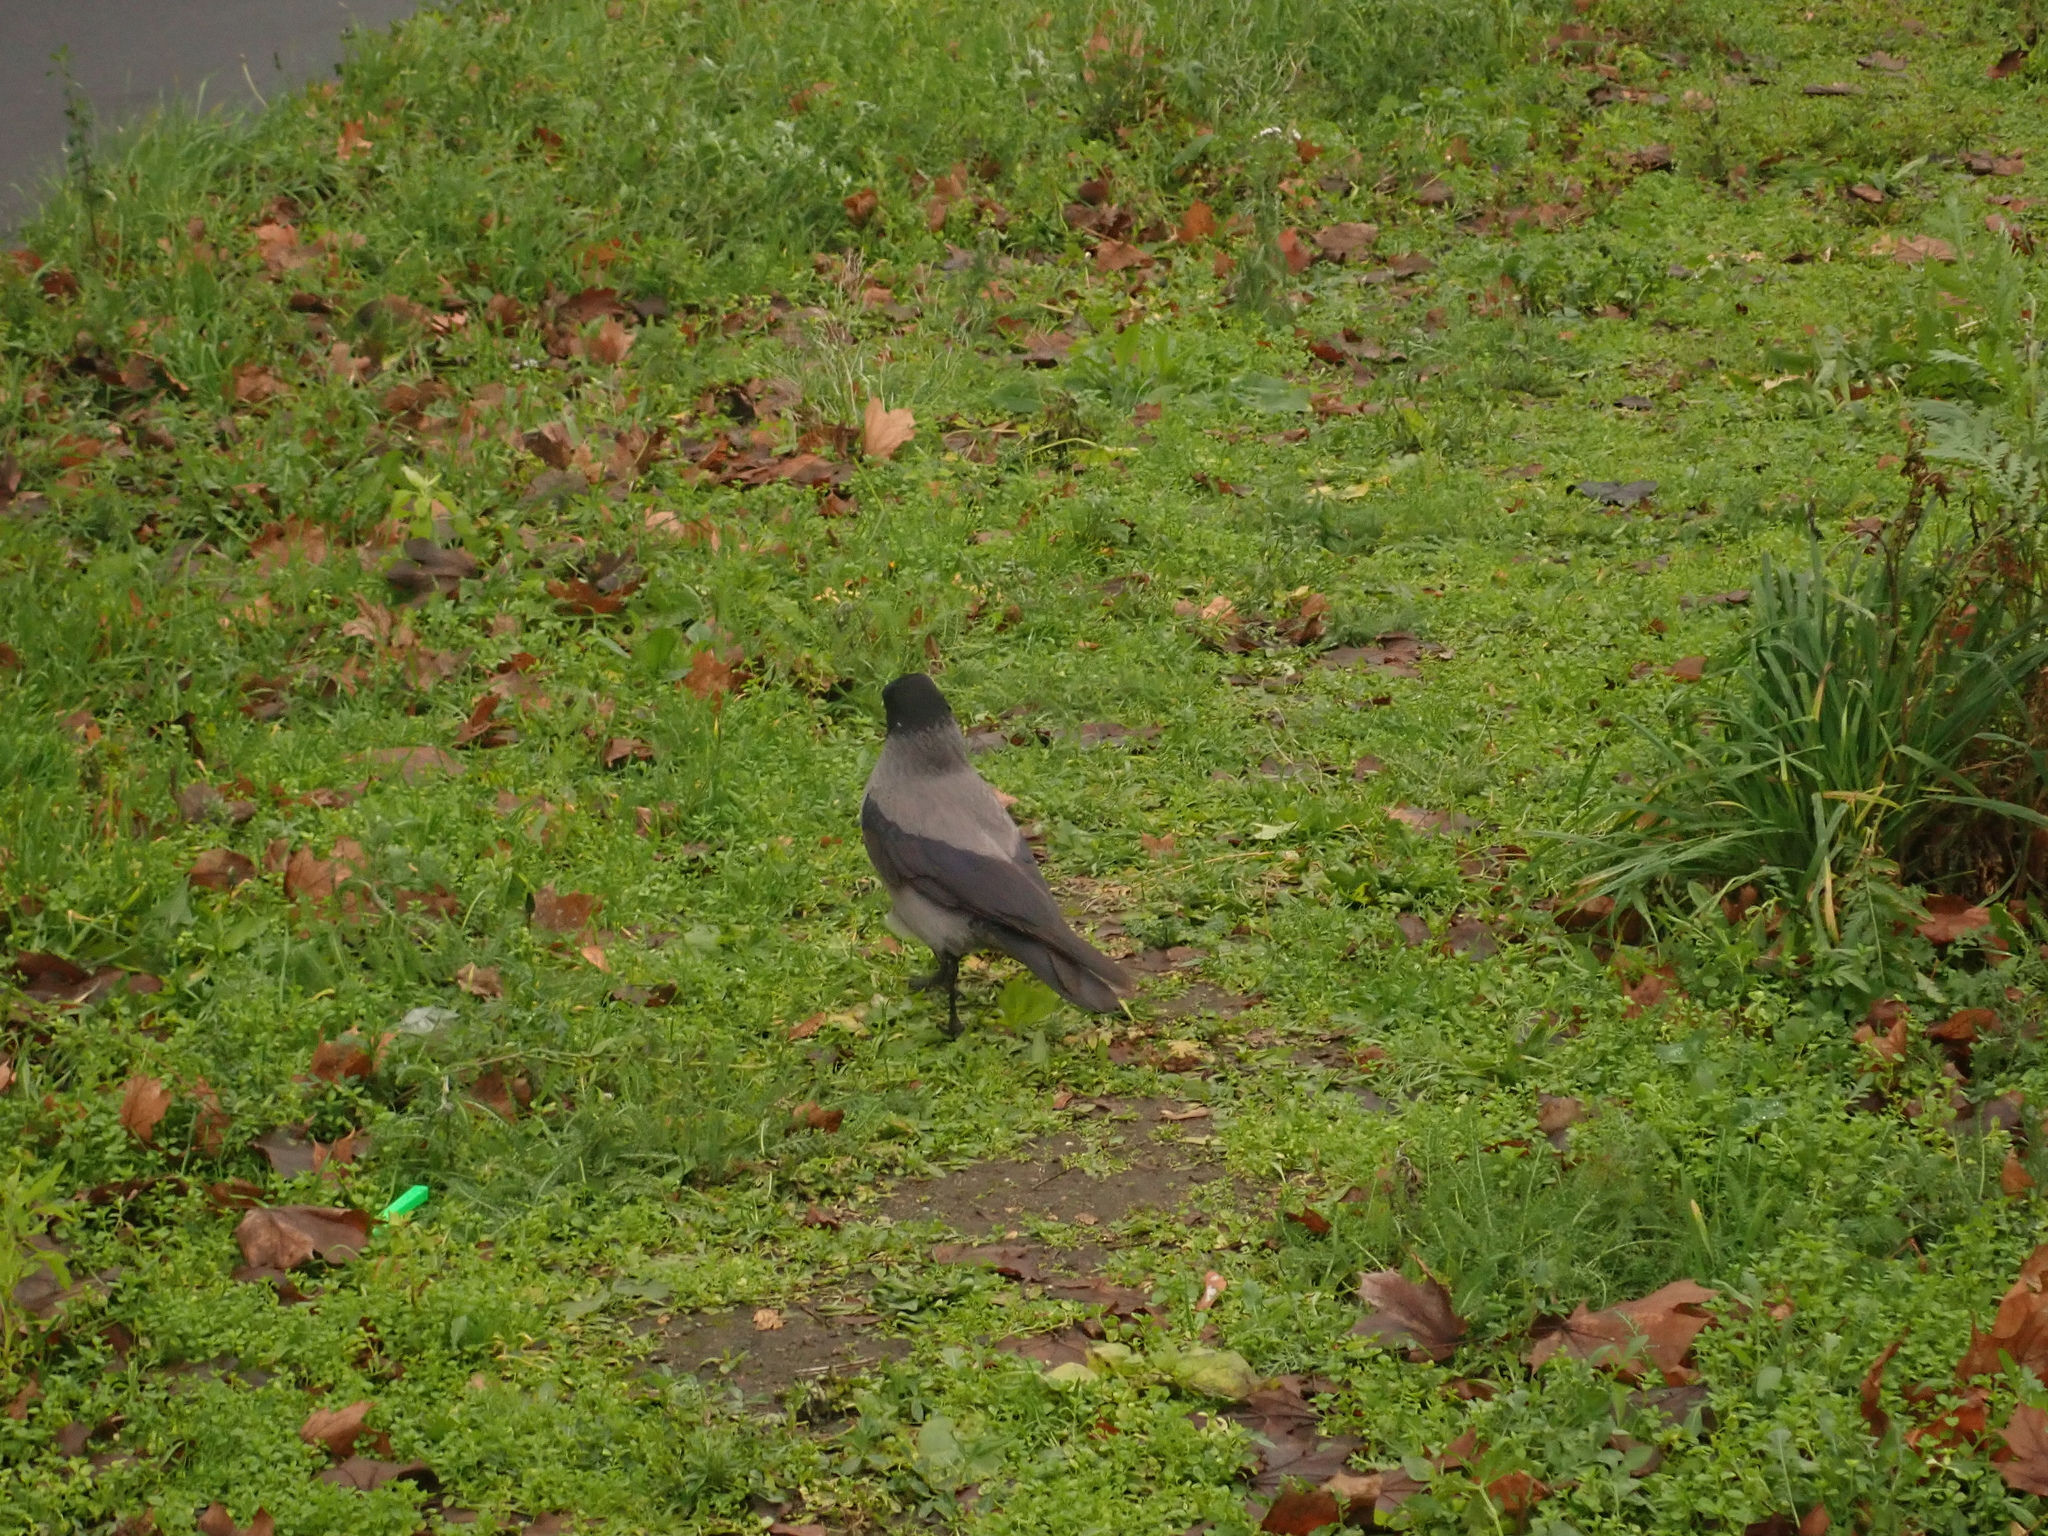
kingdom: Animalia
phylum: Chordata
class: Aves
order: Passeriformes
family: Corvidae
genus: Corvus
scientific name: Corvus cornix
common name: Hooded crow
